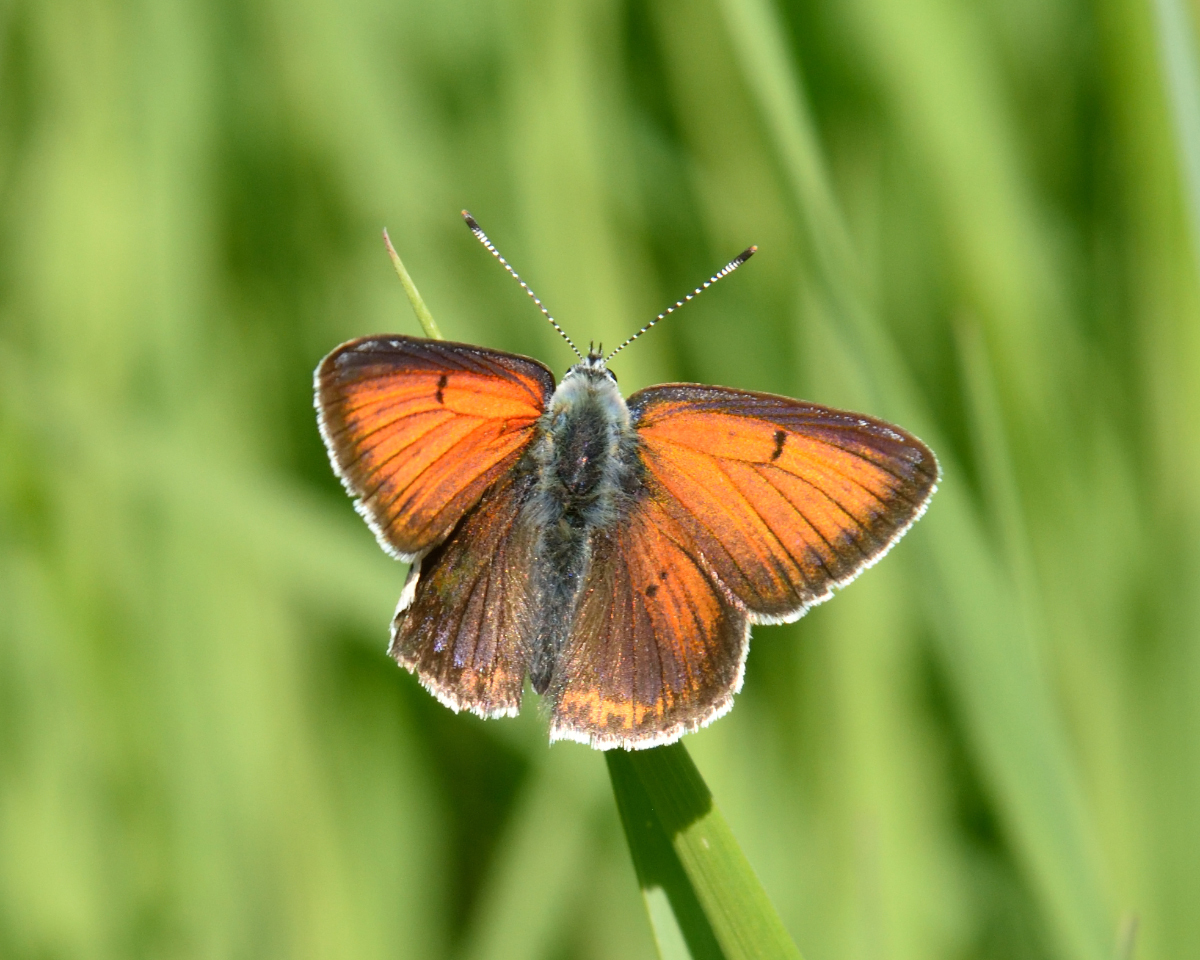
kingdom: Animalia
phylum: Arthropoda
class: Insecta
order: Lepidoptera
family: Lycaenidae
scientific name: Lycaenidae
